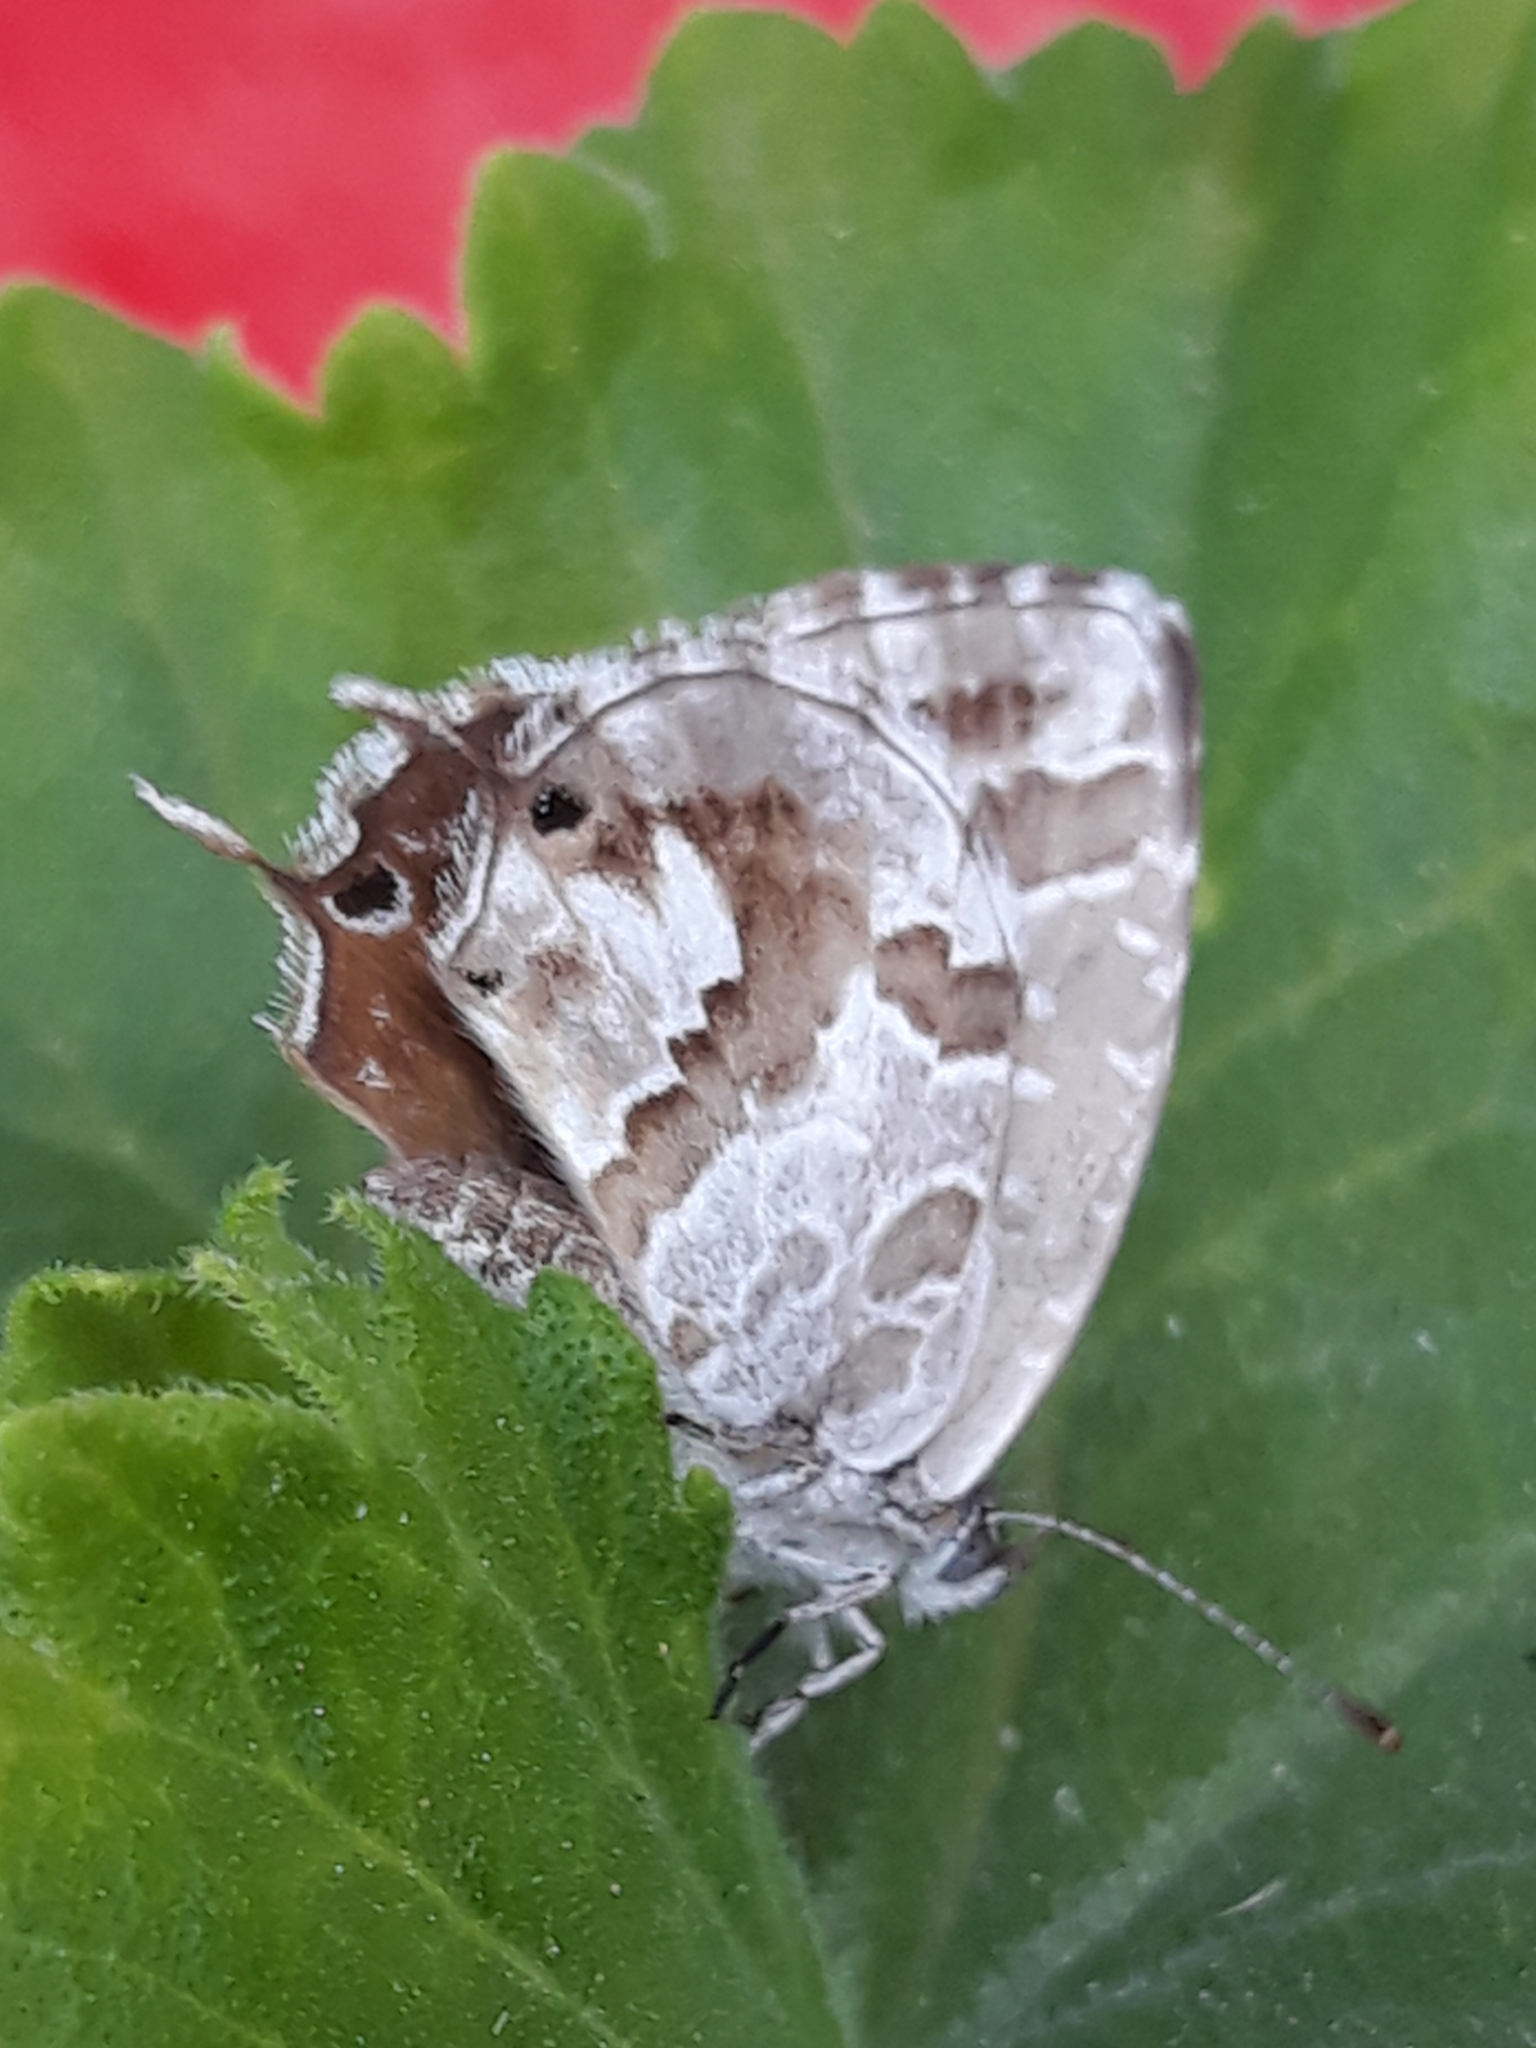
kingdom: Animalia
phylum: Arthropoda
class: Insecta
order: Lepidoptera
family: Lycaenidae
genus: Cacyreus
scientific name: Cacyreus marshalli
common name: Geranium bronze
